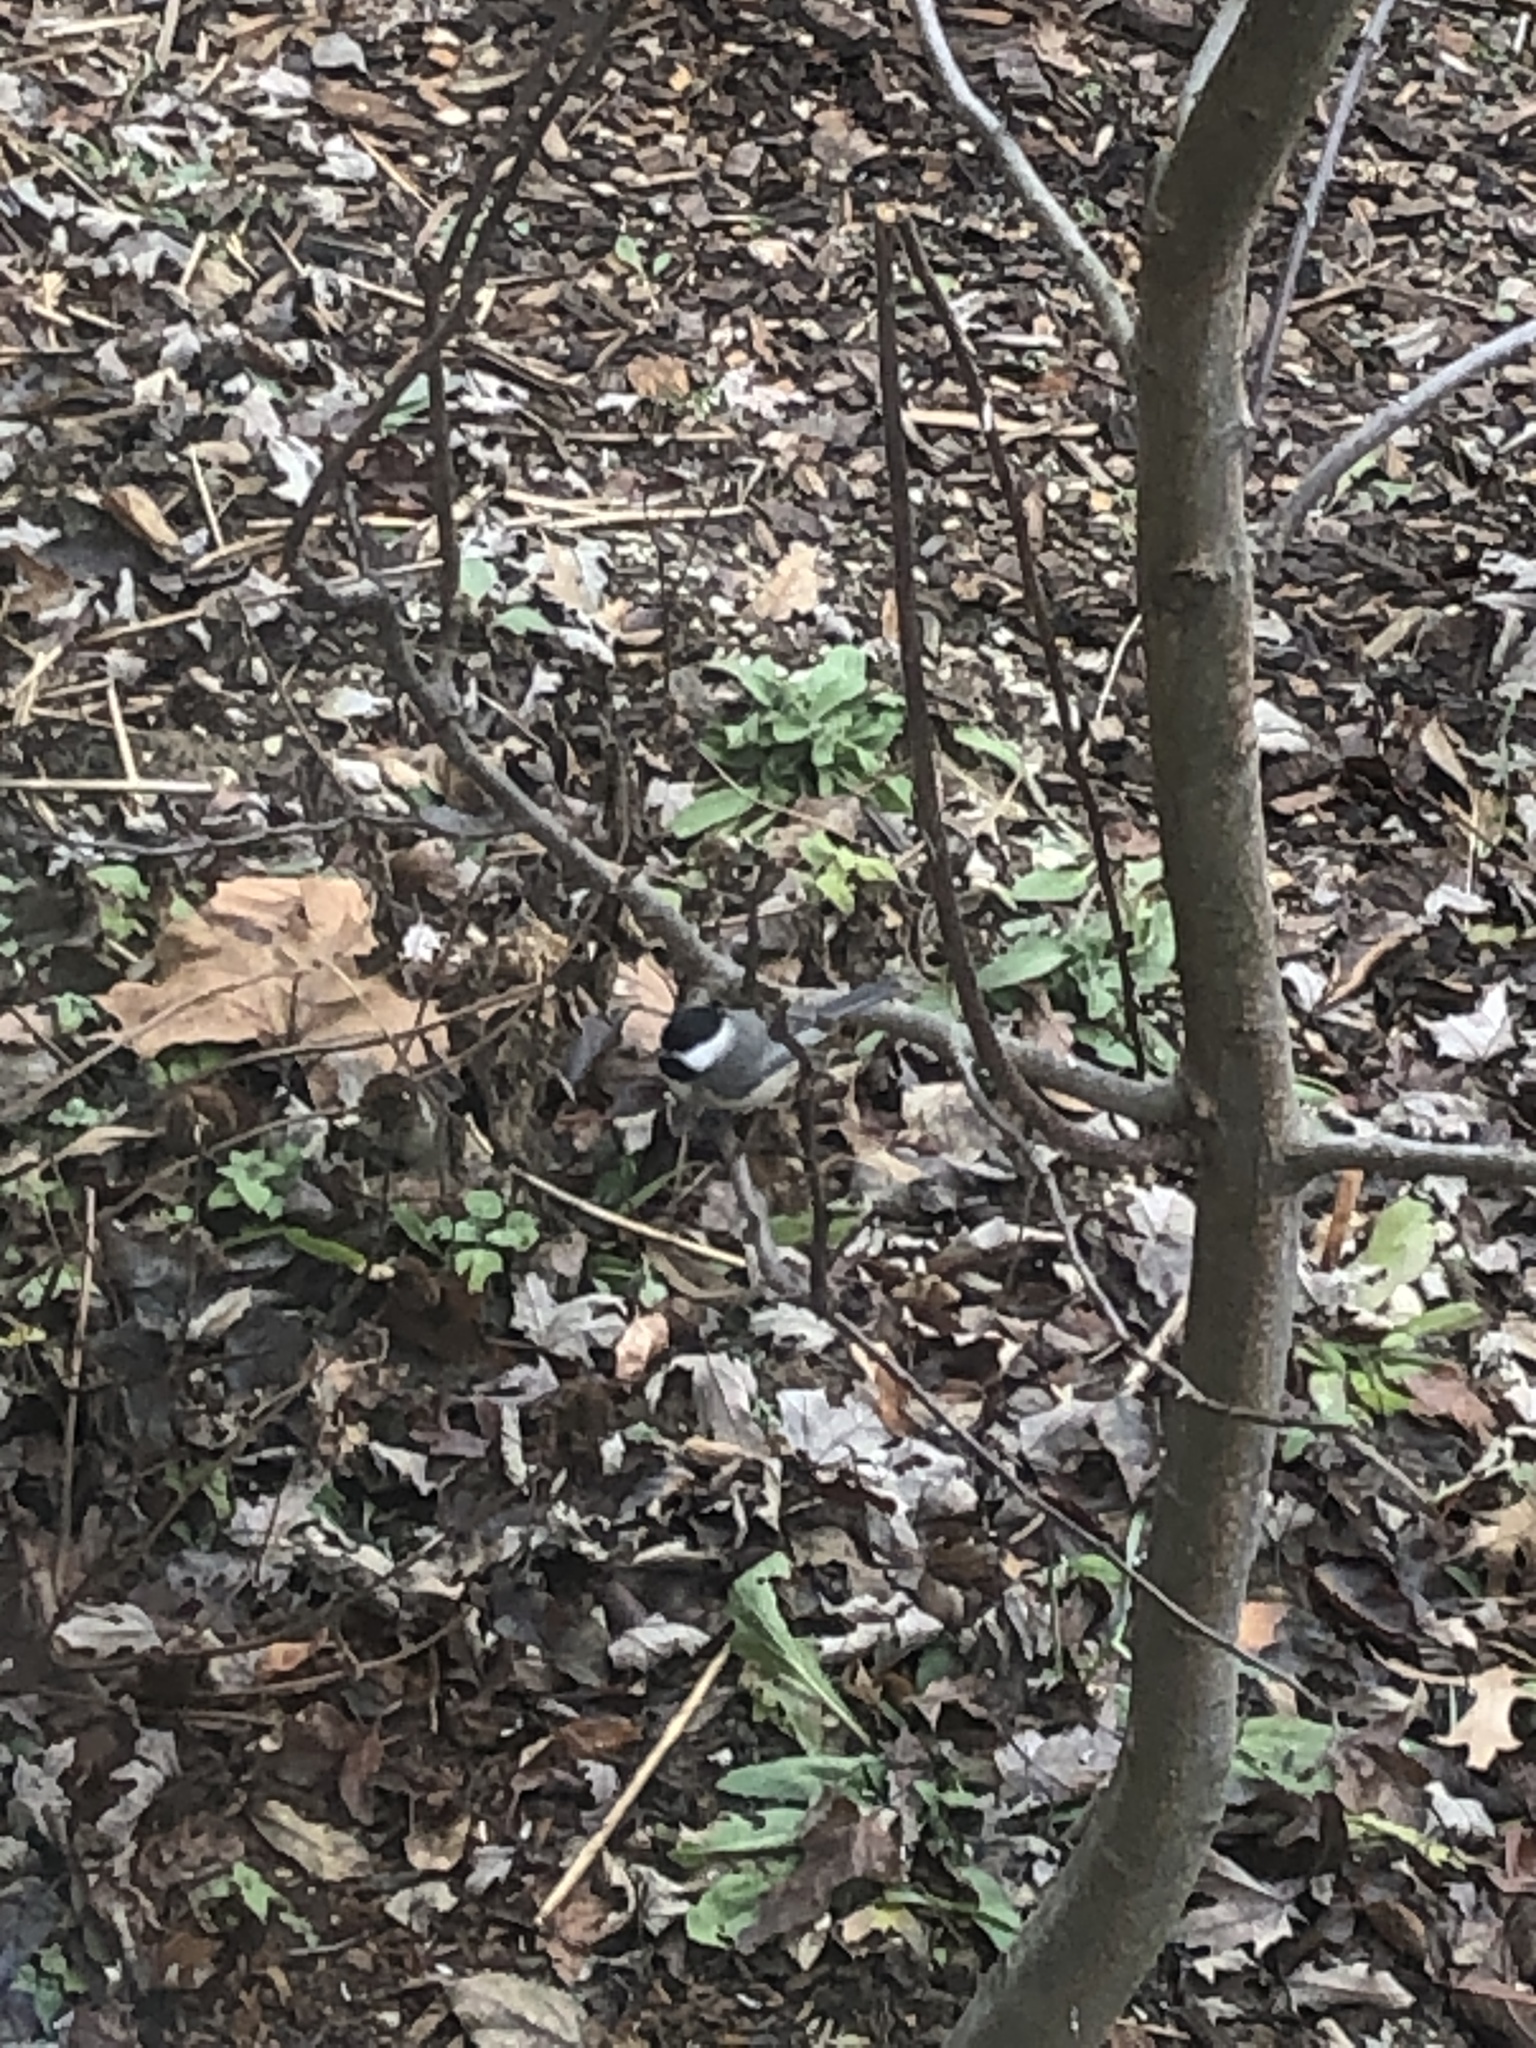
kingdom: Animalia
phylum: Chordata
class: Aves
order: Passeriformes
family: Paridae
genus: Poecile
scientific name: Poecile carolinensis
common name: Carolina chickadee
